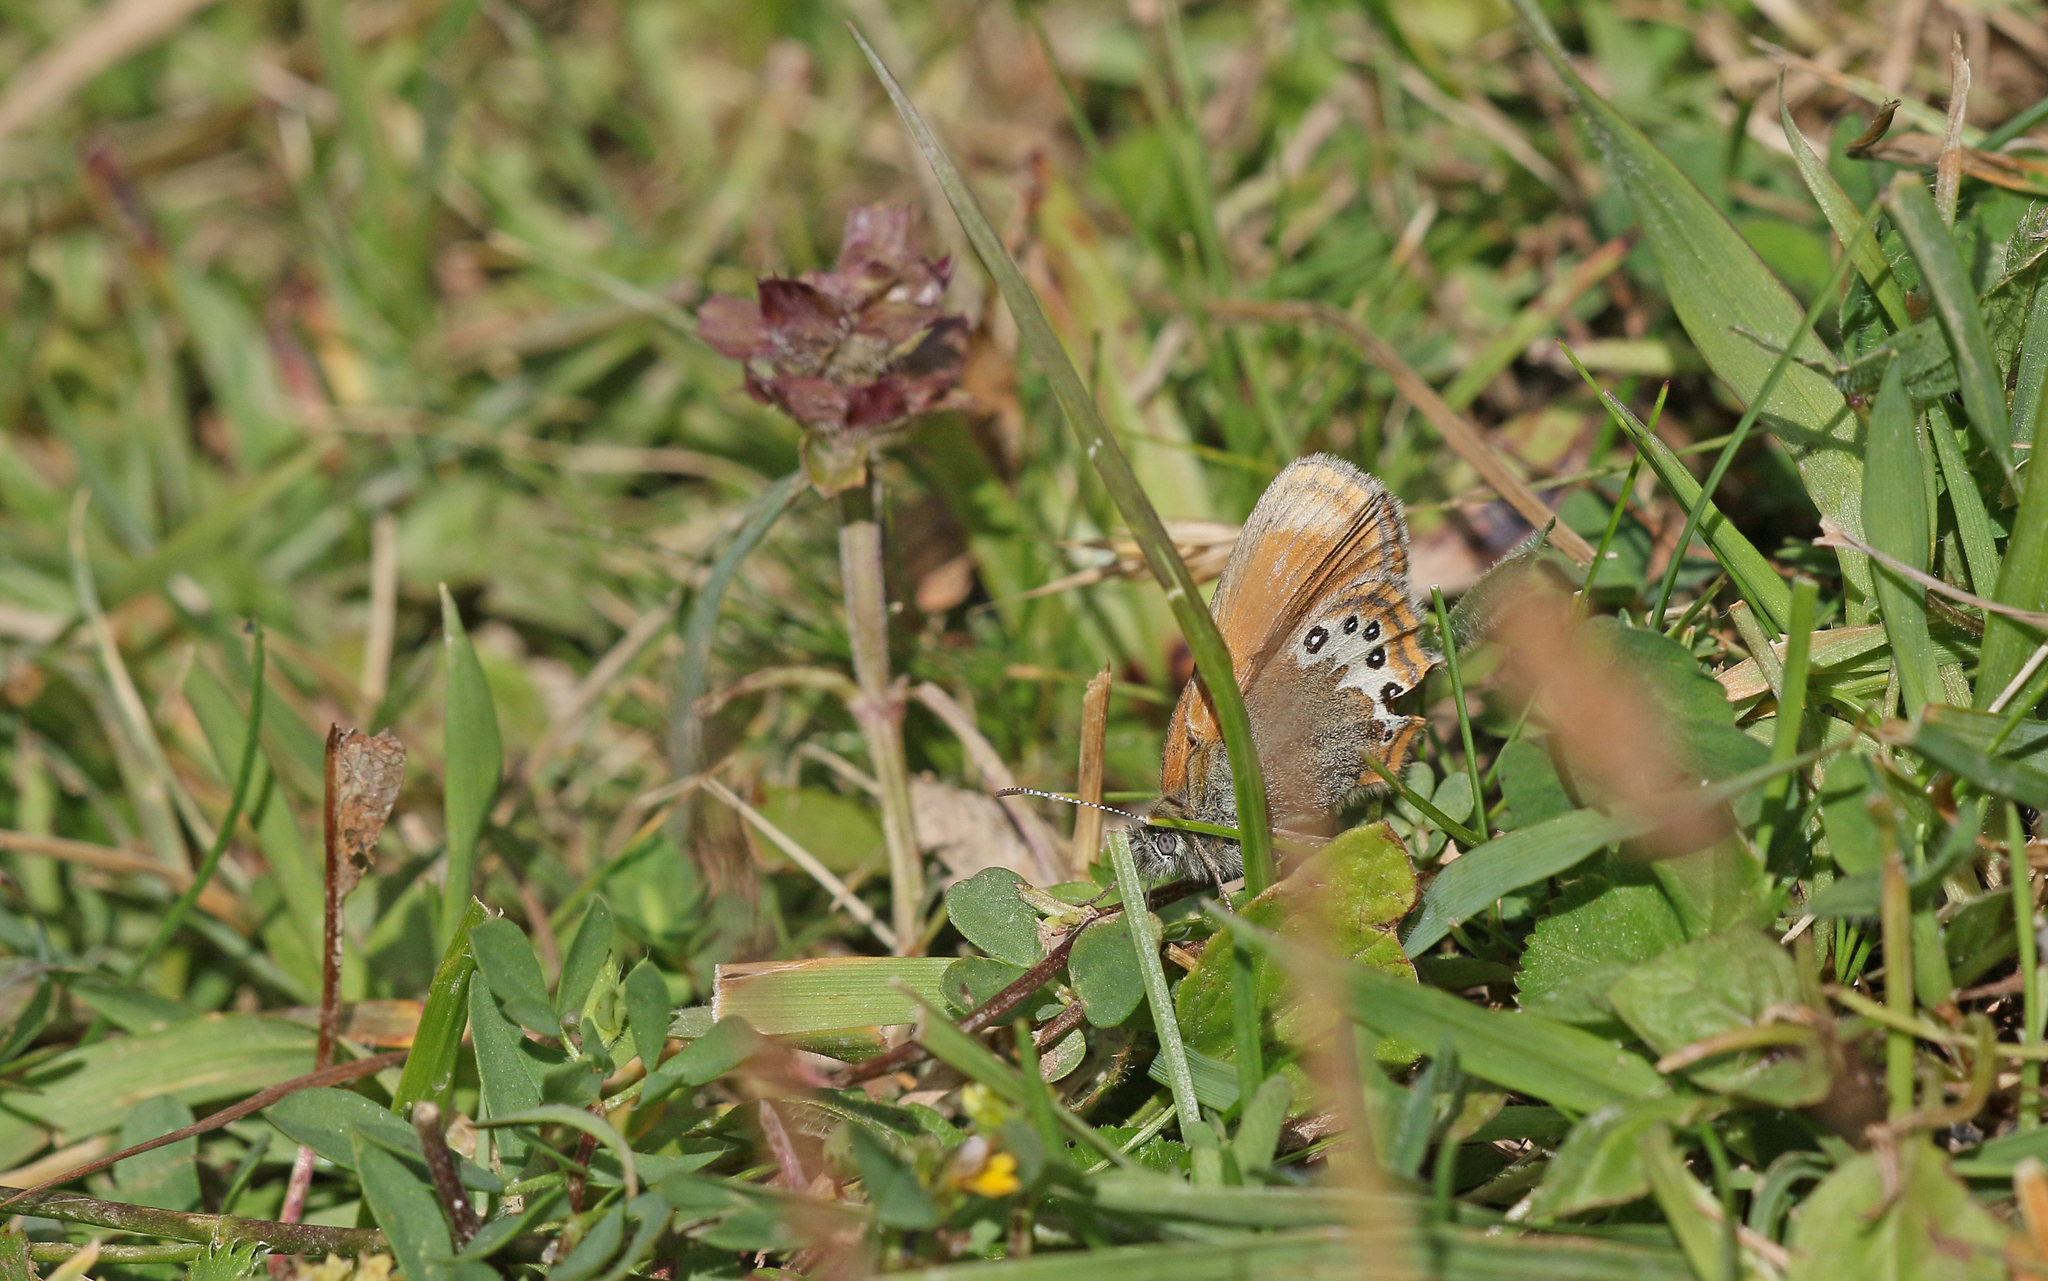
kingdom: Animalia
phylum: Arthropoda
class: Insecta
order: Lepidoptera
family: Nymphalidae
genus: Coenonympha
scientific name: Coenonympha
